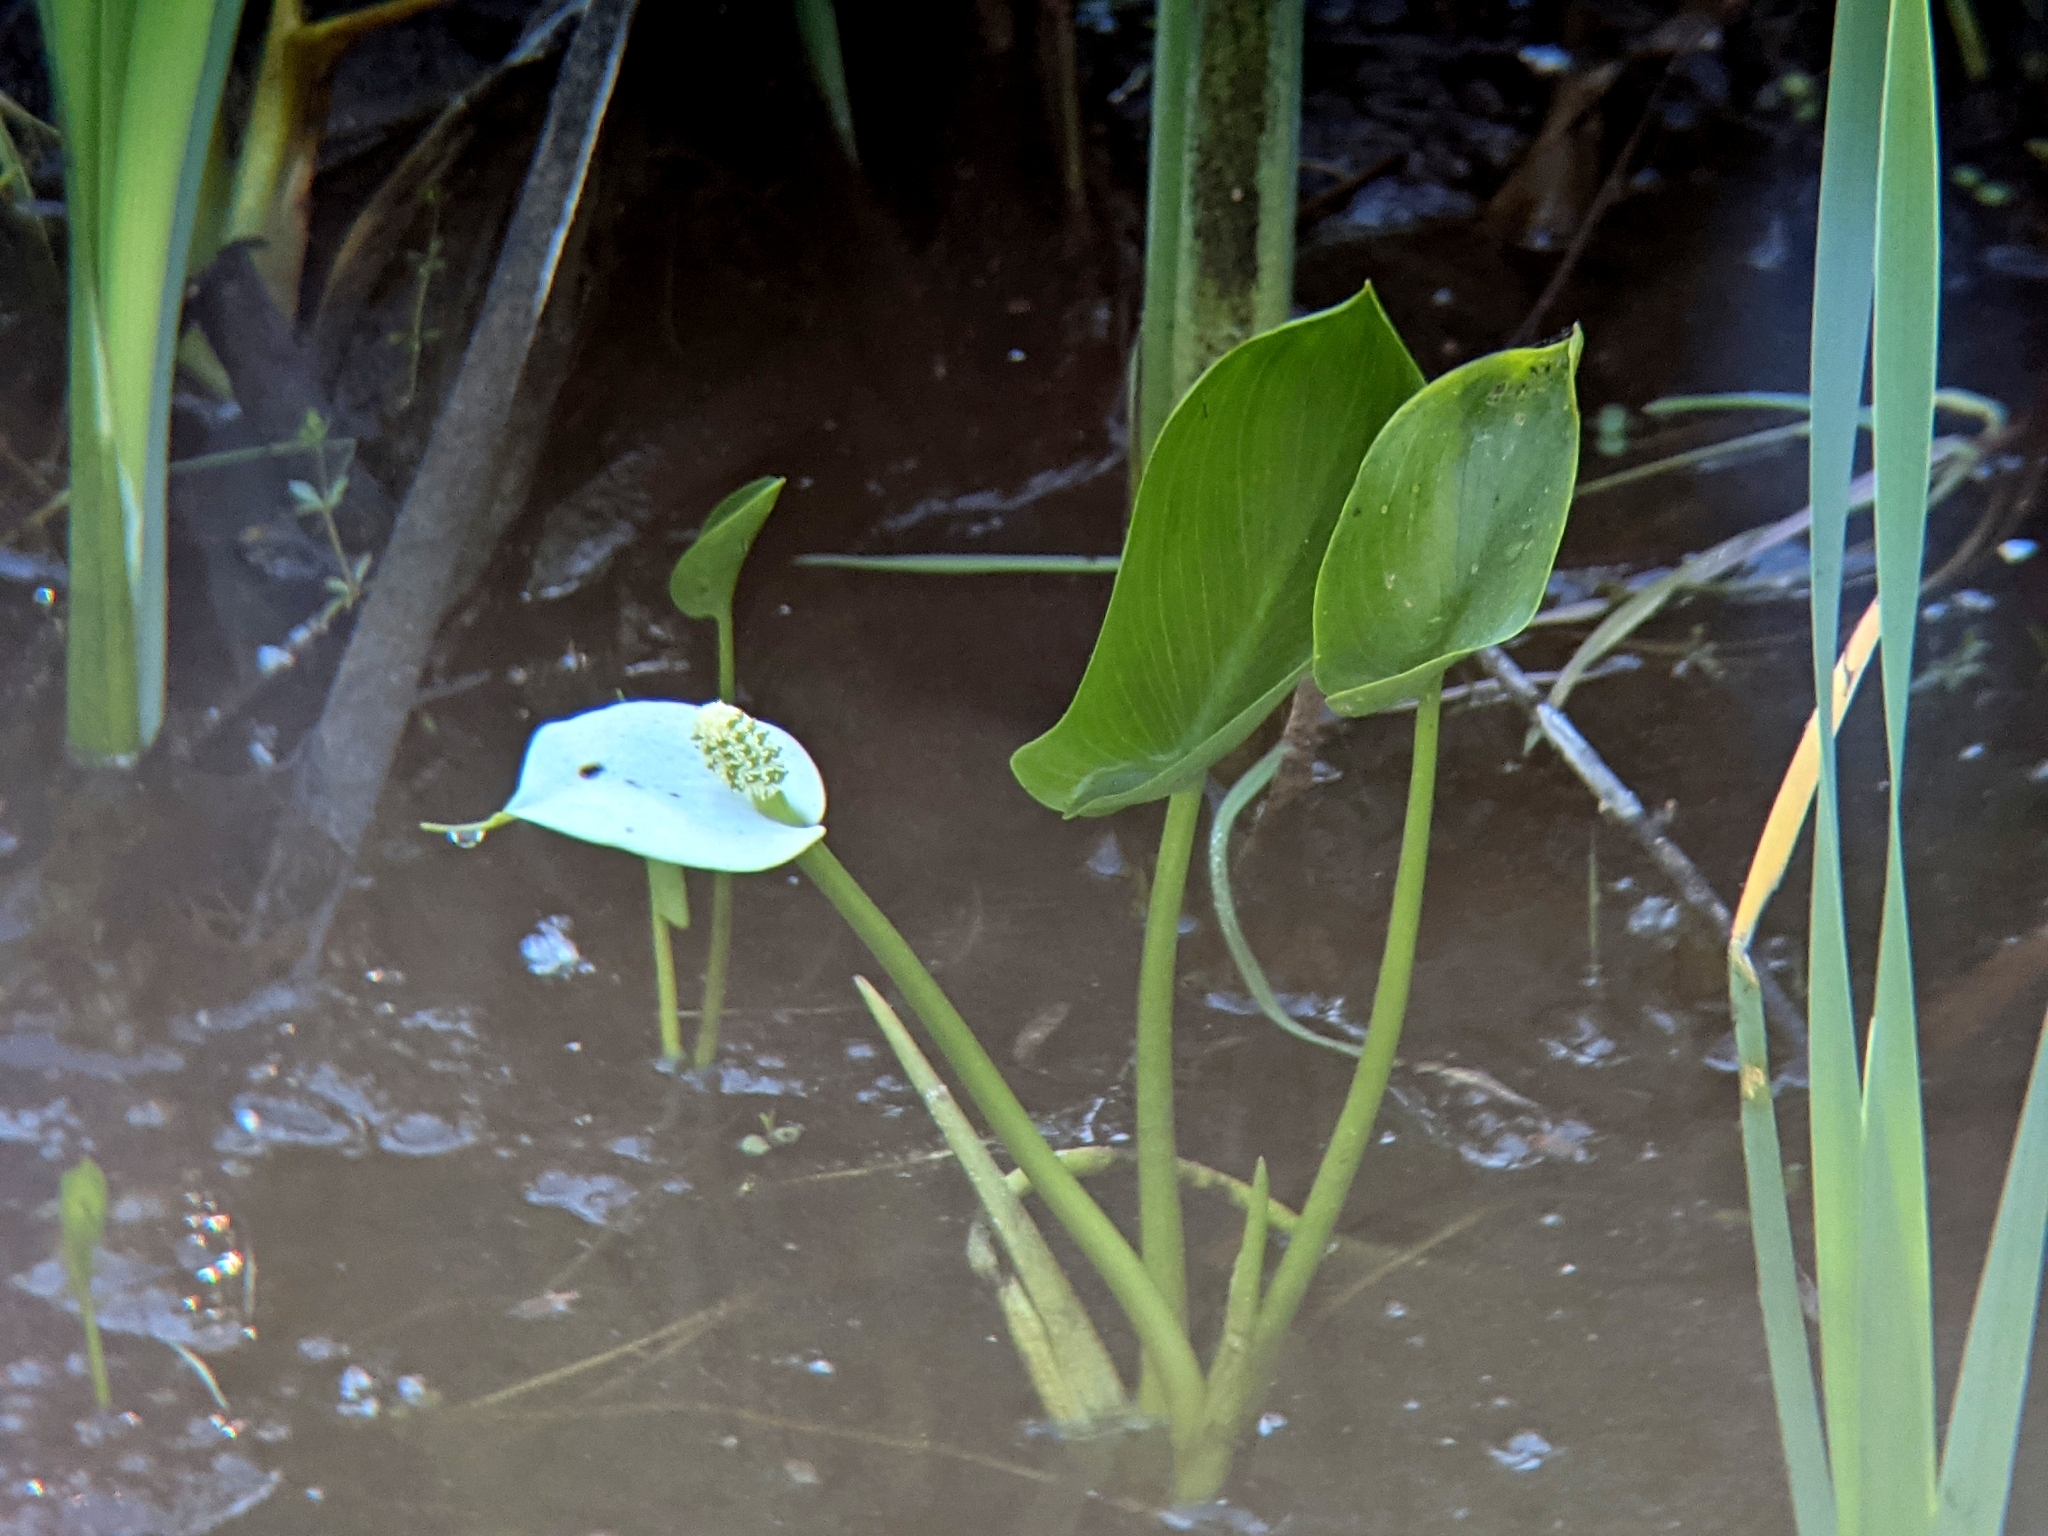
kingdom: Plantae
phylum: Tracheophyta
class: Liliopsida
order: Alismatales
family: Araceae
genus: Calla
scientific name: Calla palustris
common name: Bog arum
